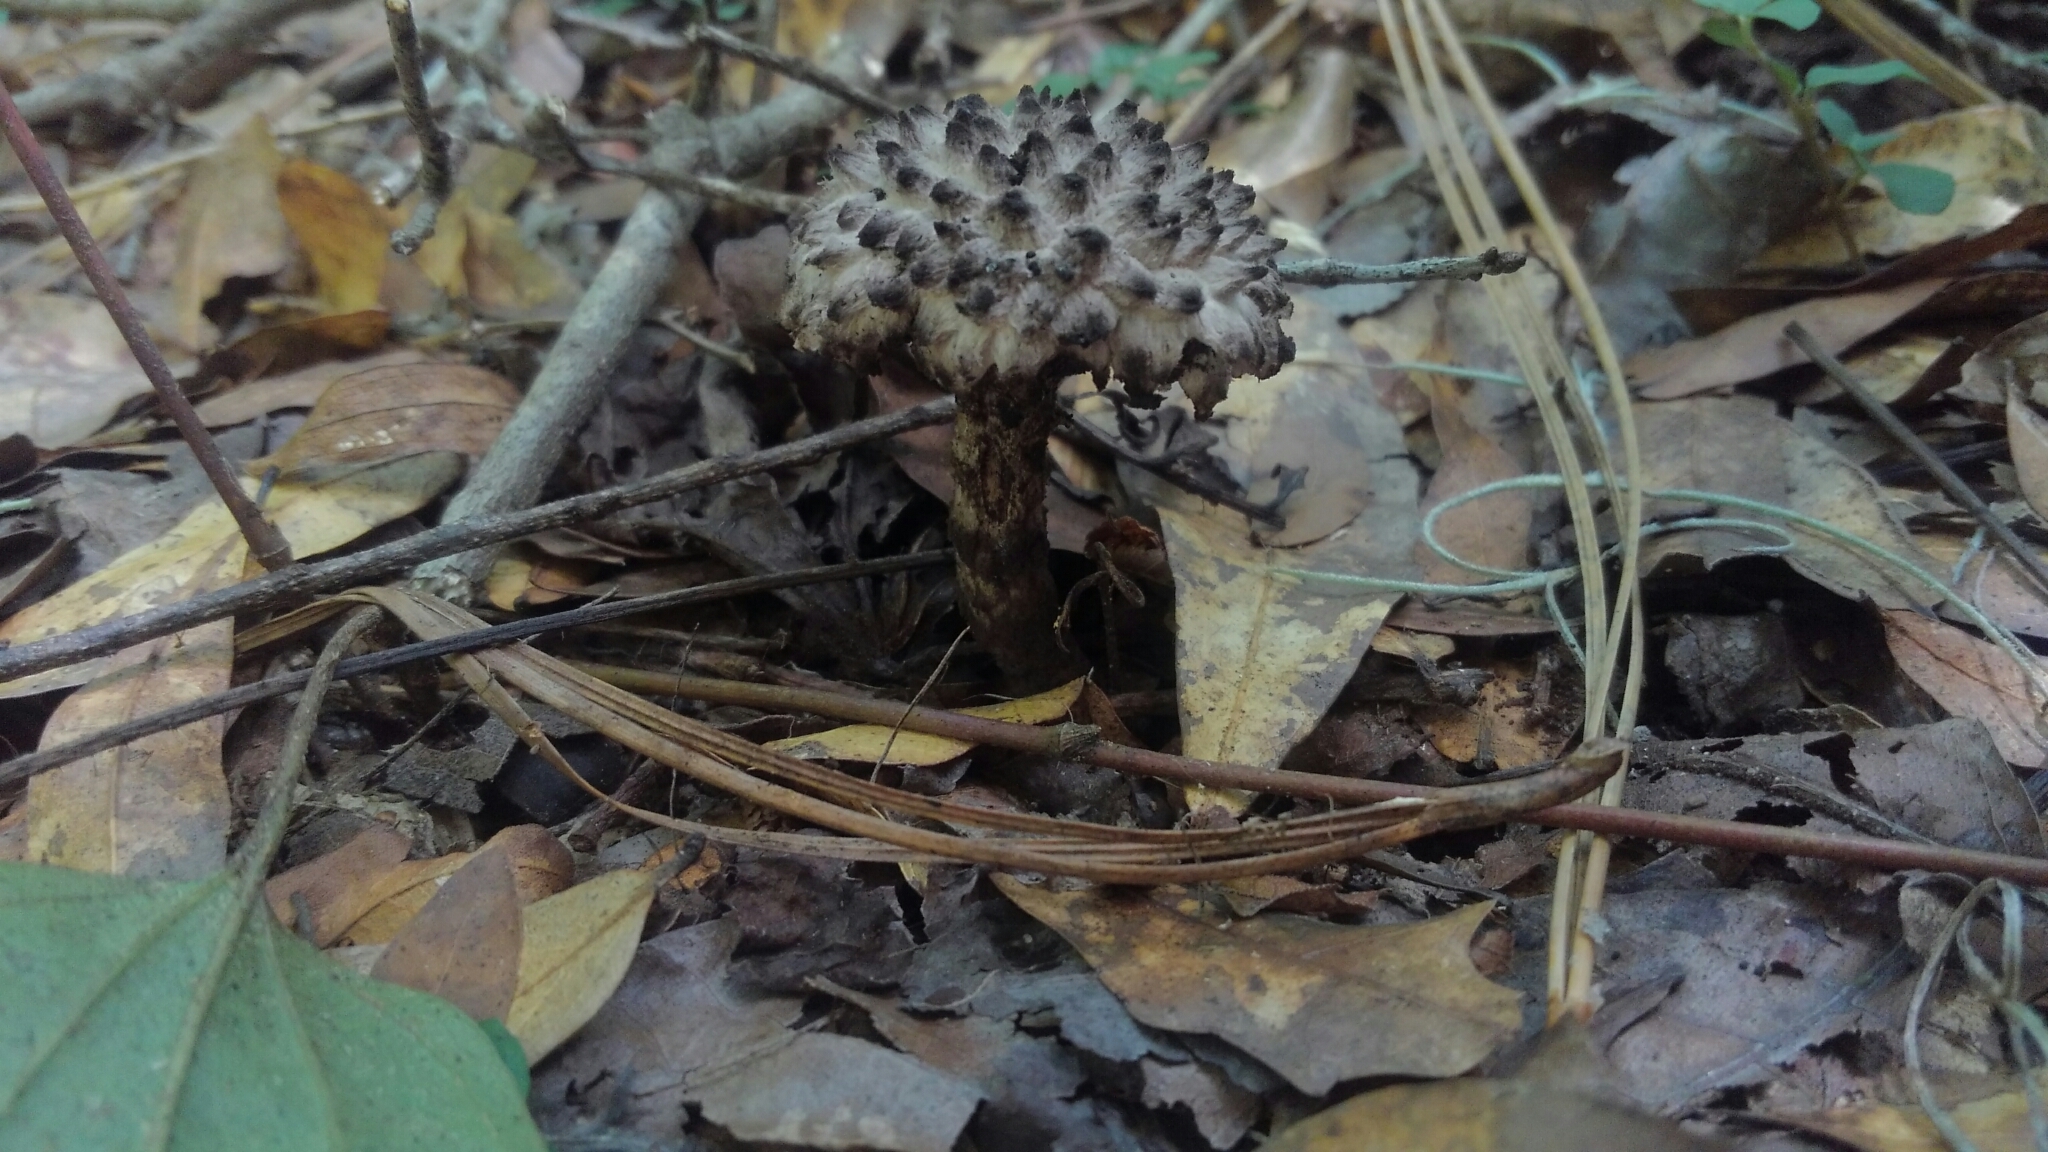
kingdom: Fungi
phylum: Basidiomycota
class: Agaricomycetes
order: Boletales
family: Boletaceae
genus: Strobilomyces
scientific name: Strobilomyces strobilaceus
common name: Old man of the woods
